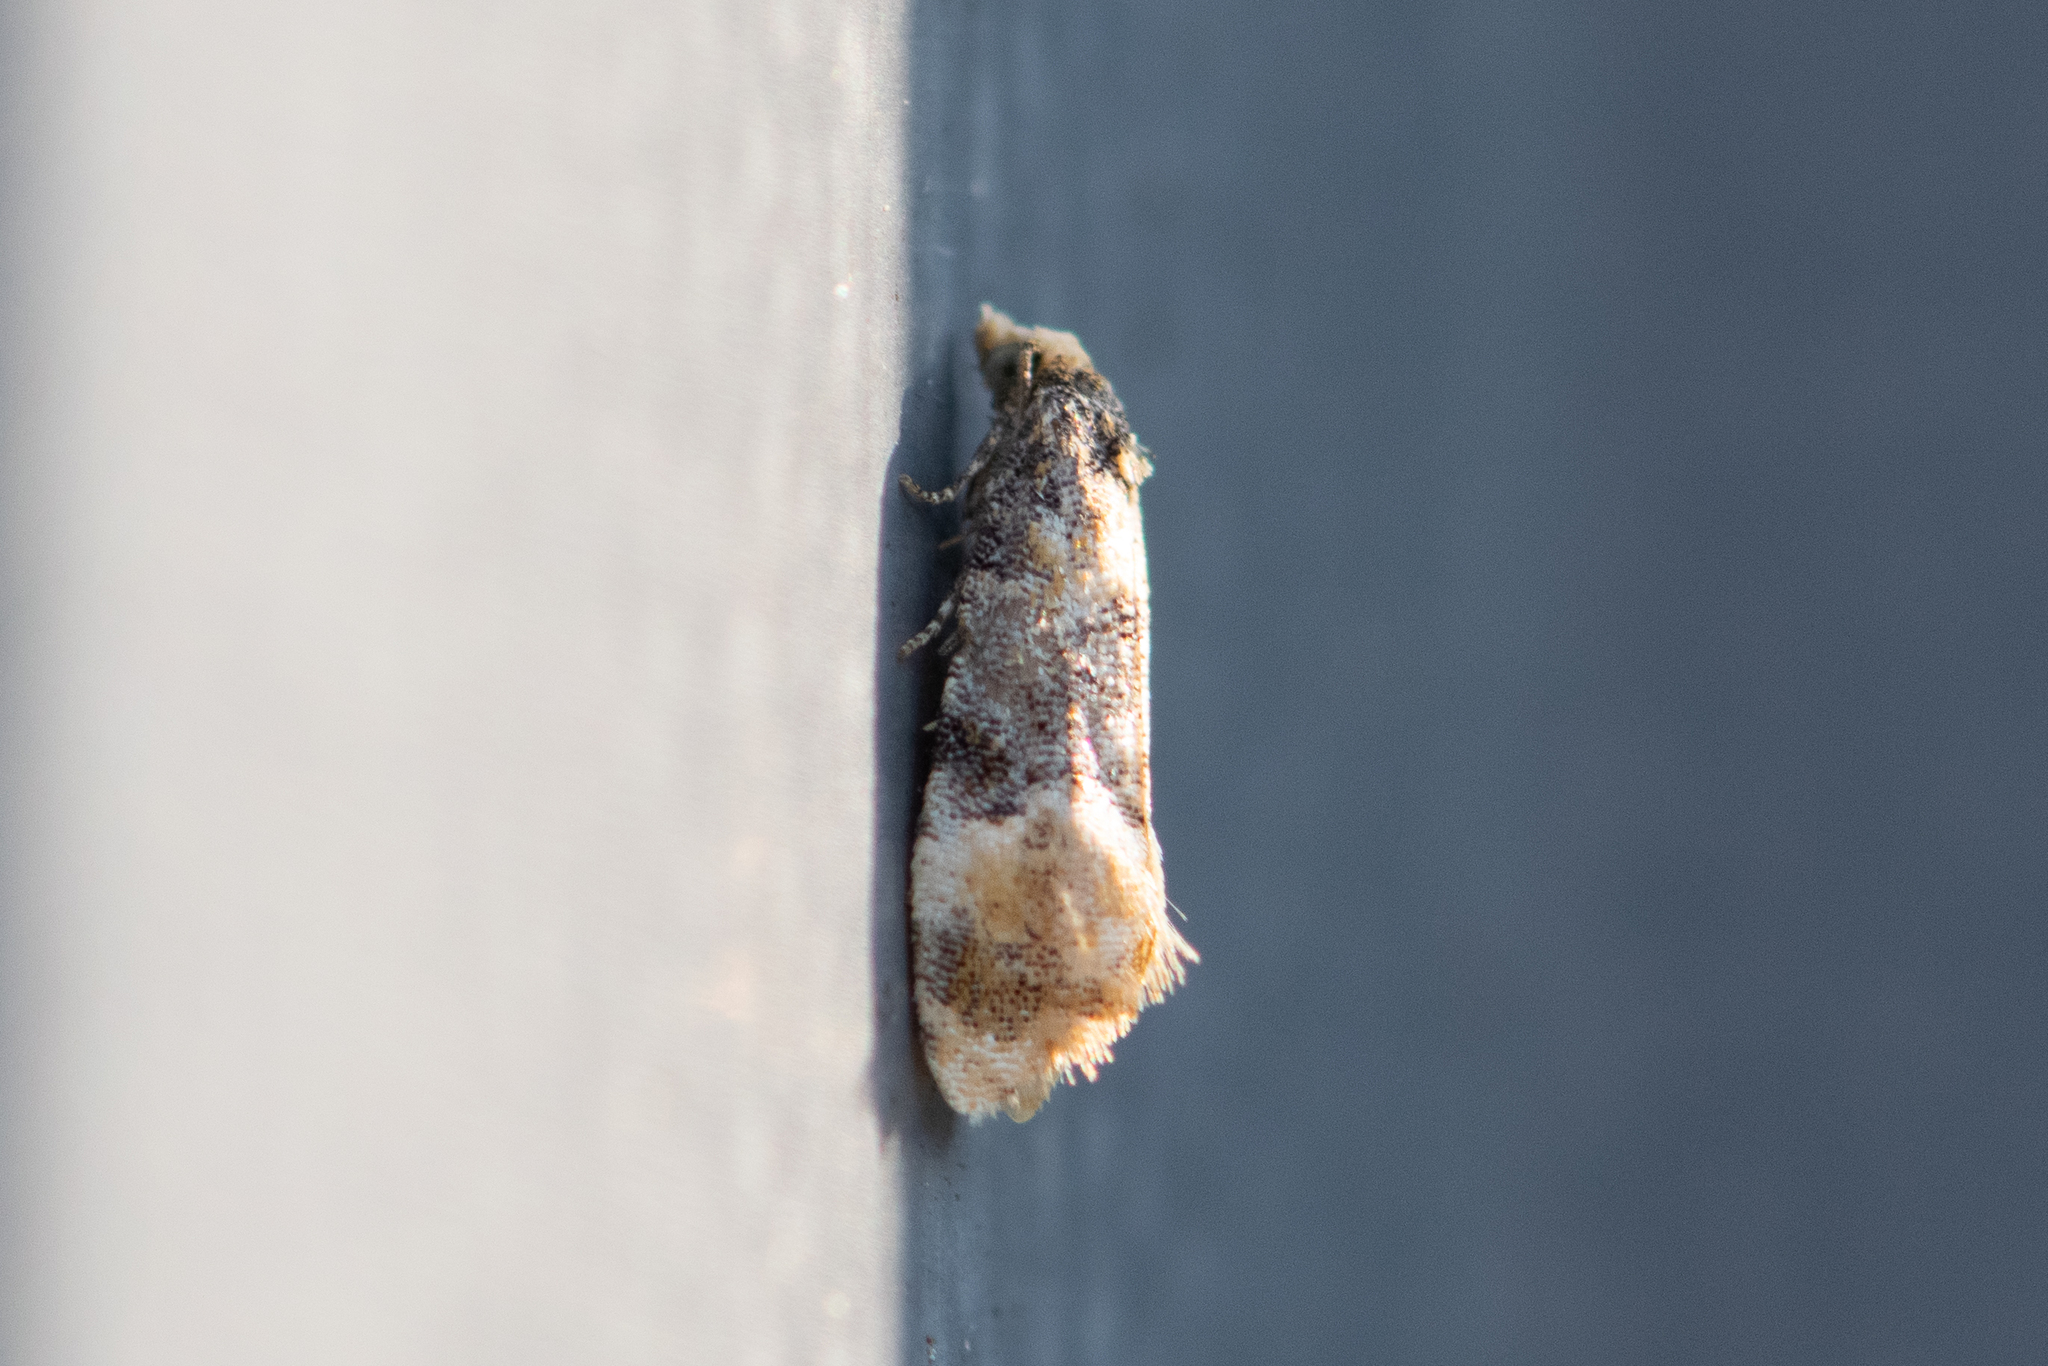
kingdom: Animalia
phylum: Arthropoda
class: Insecta
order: Lepidoptera
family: Tortricidae
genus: Thyraylia
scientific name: Thyraylia nana
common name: Birch conch
